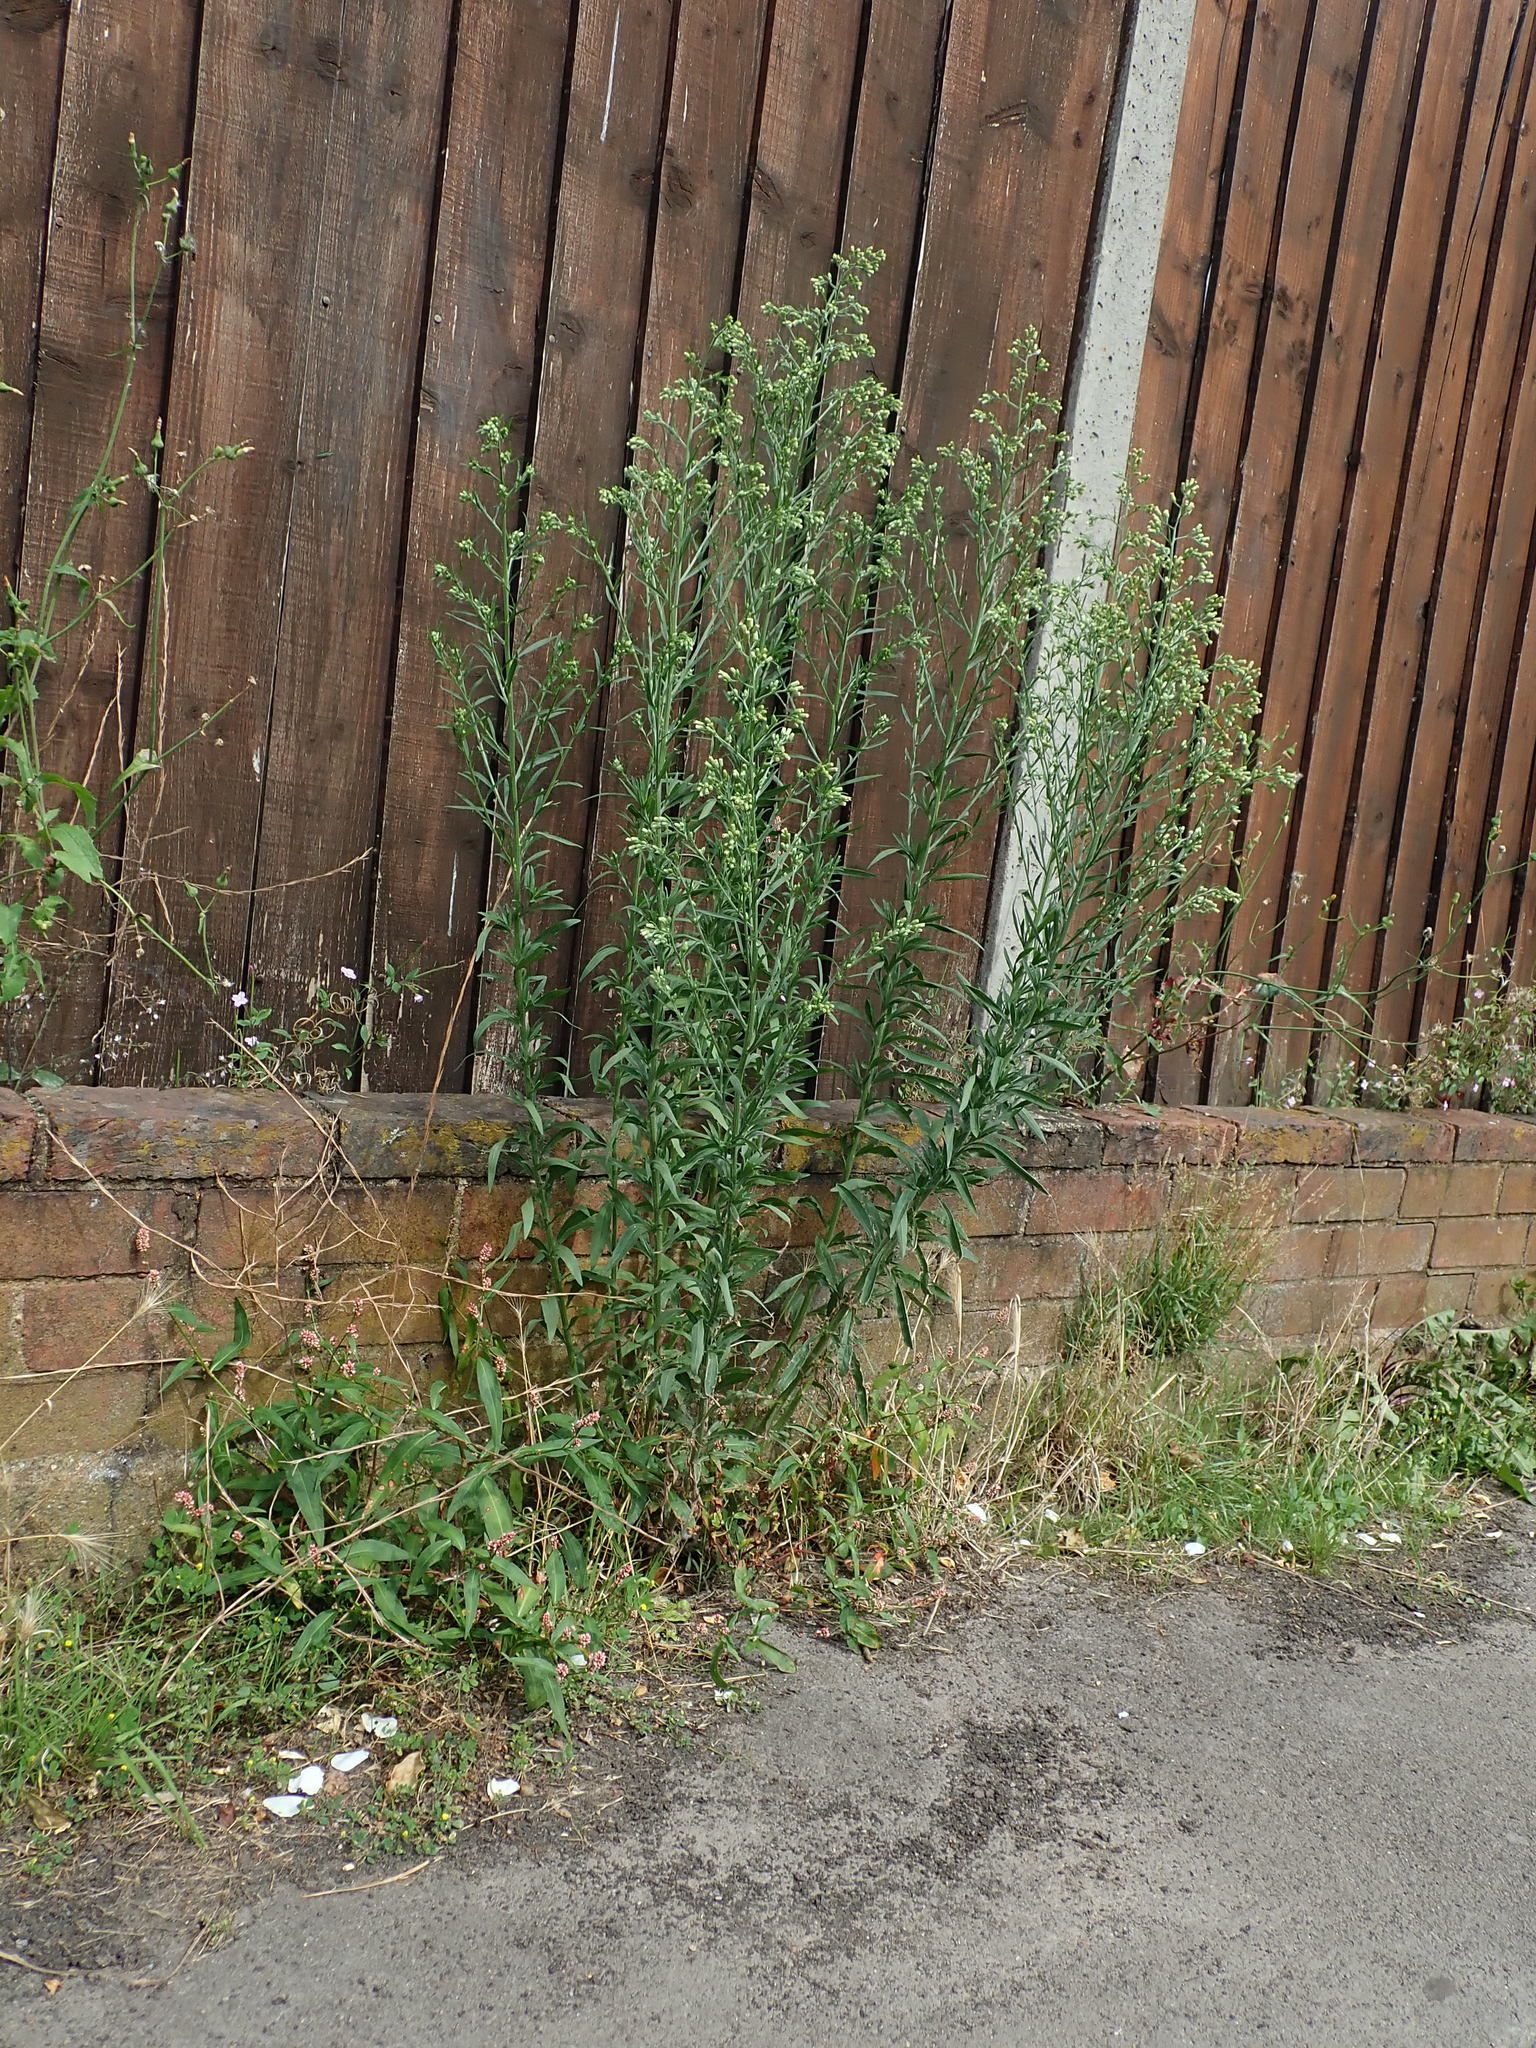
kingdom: Plantae
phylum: Tracheophyta
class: Magnoliopsida
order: Asterales
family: Asteraceae
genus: Erigeron
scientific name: Erigeron sumatrensis
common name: Daisy
